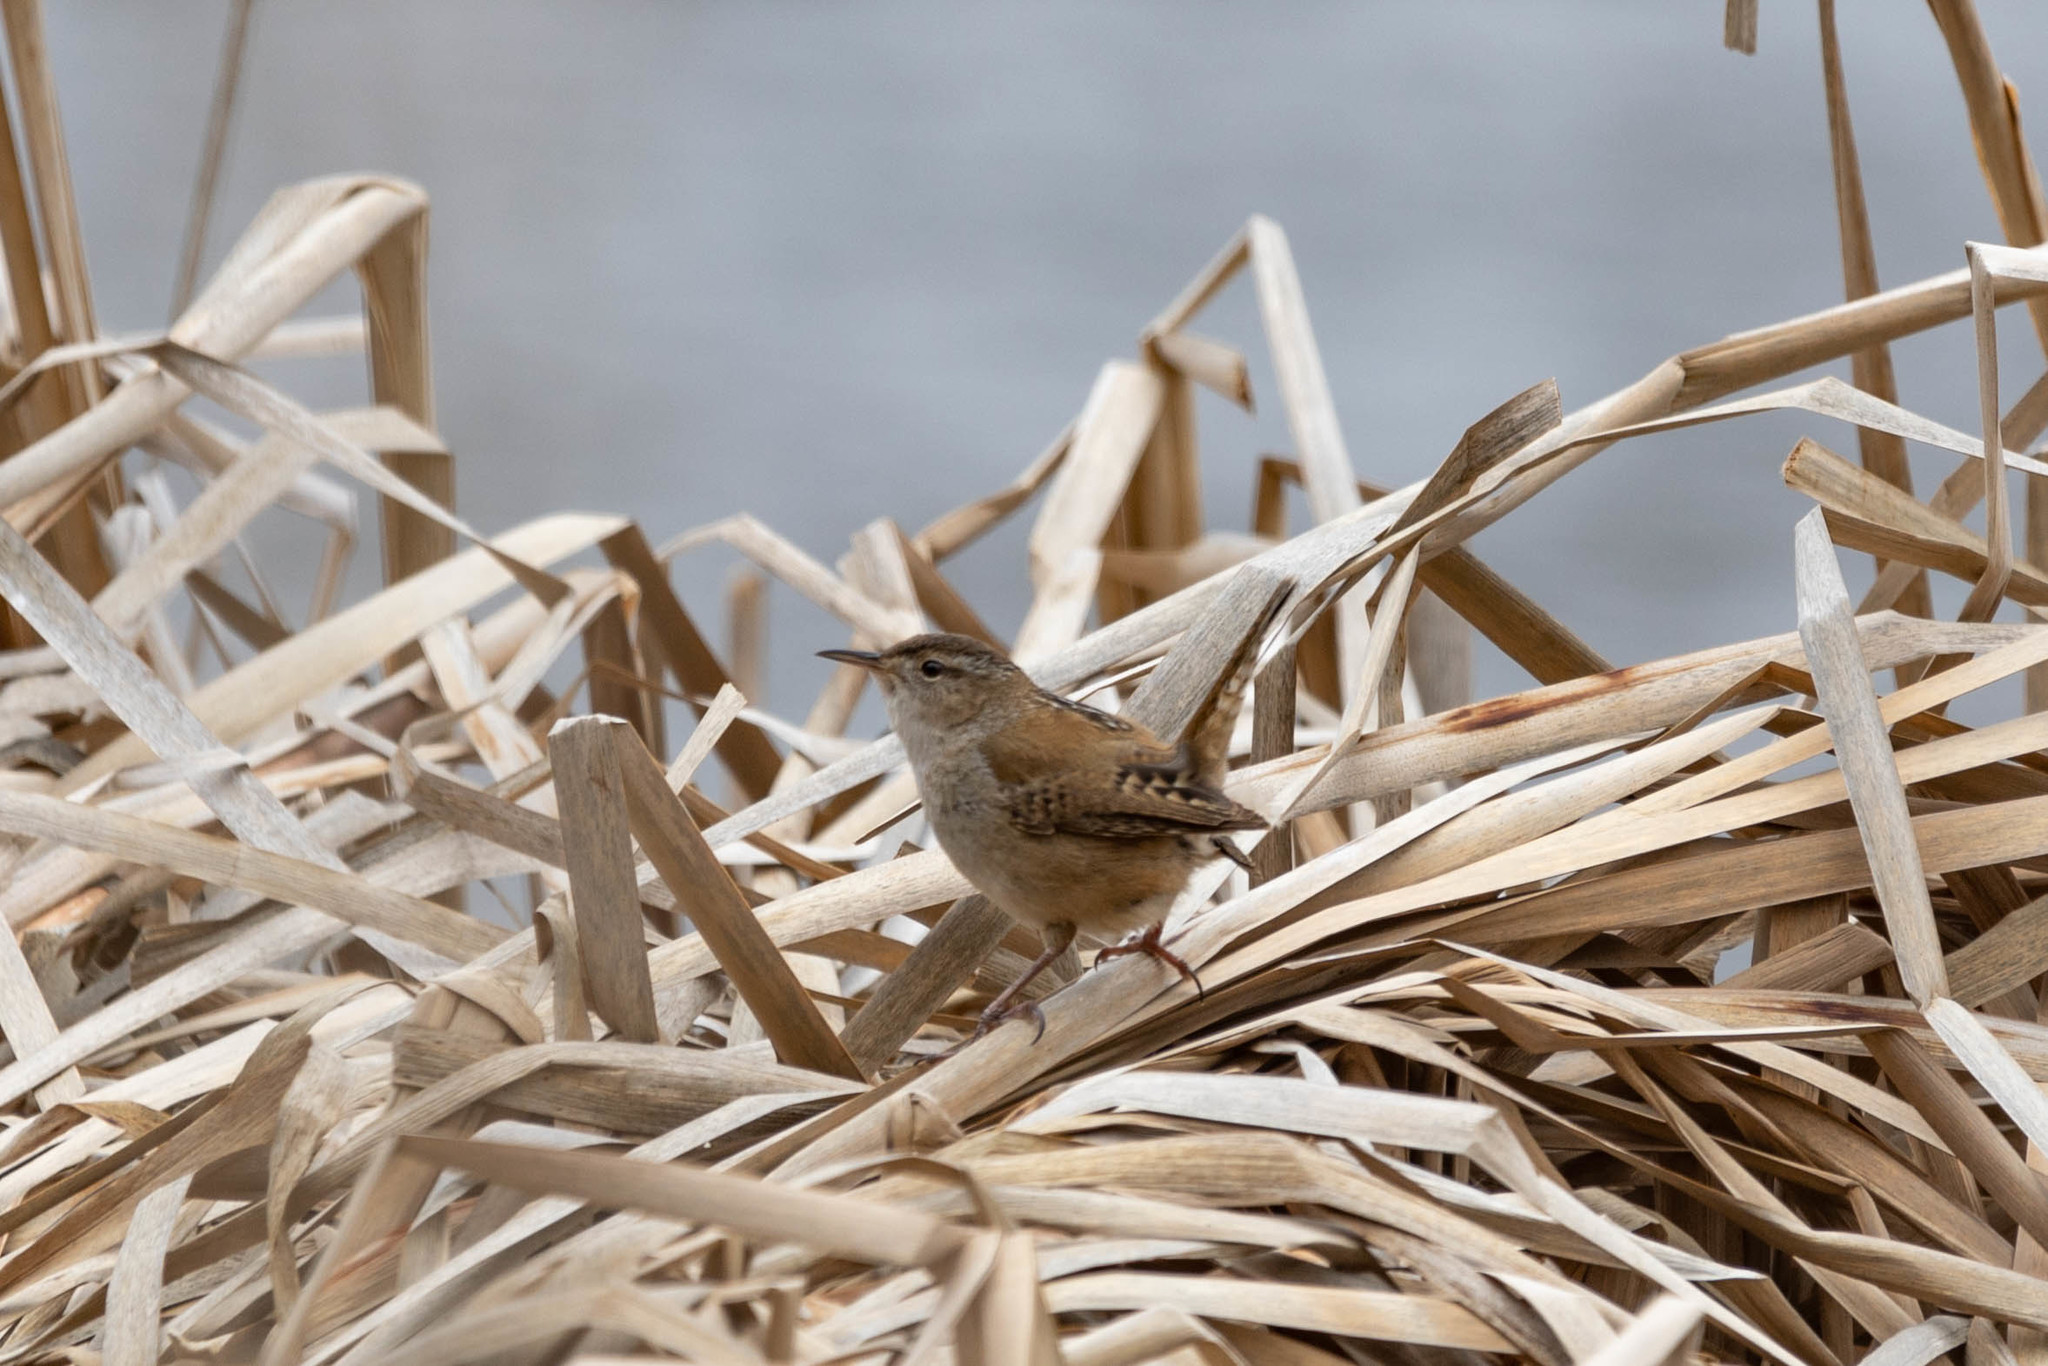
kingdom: Animalia
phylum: Chordata
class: Aves
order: Passeriformes
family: Troglodytidae
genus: Cistothorus
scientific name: Cistothorus palustris
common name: Marsh wren
